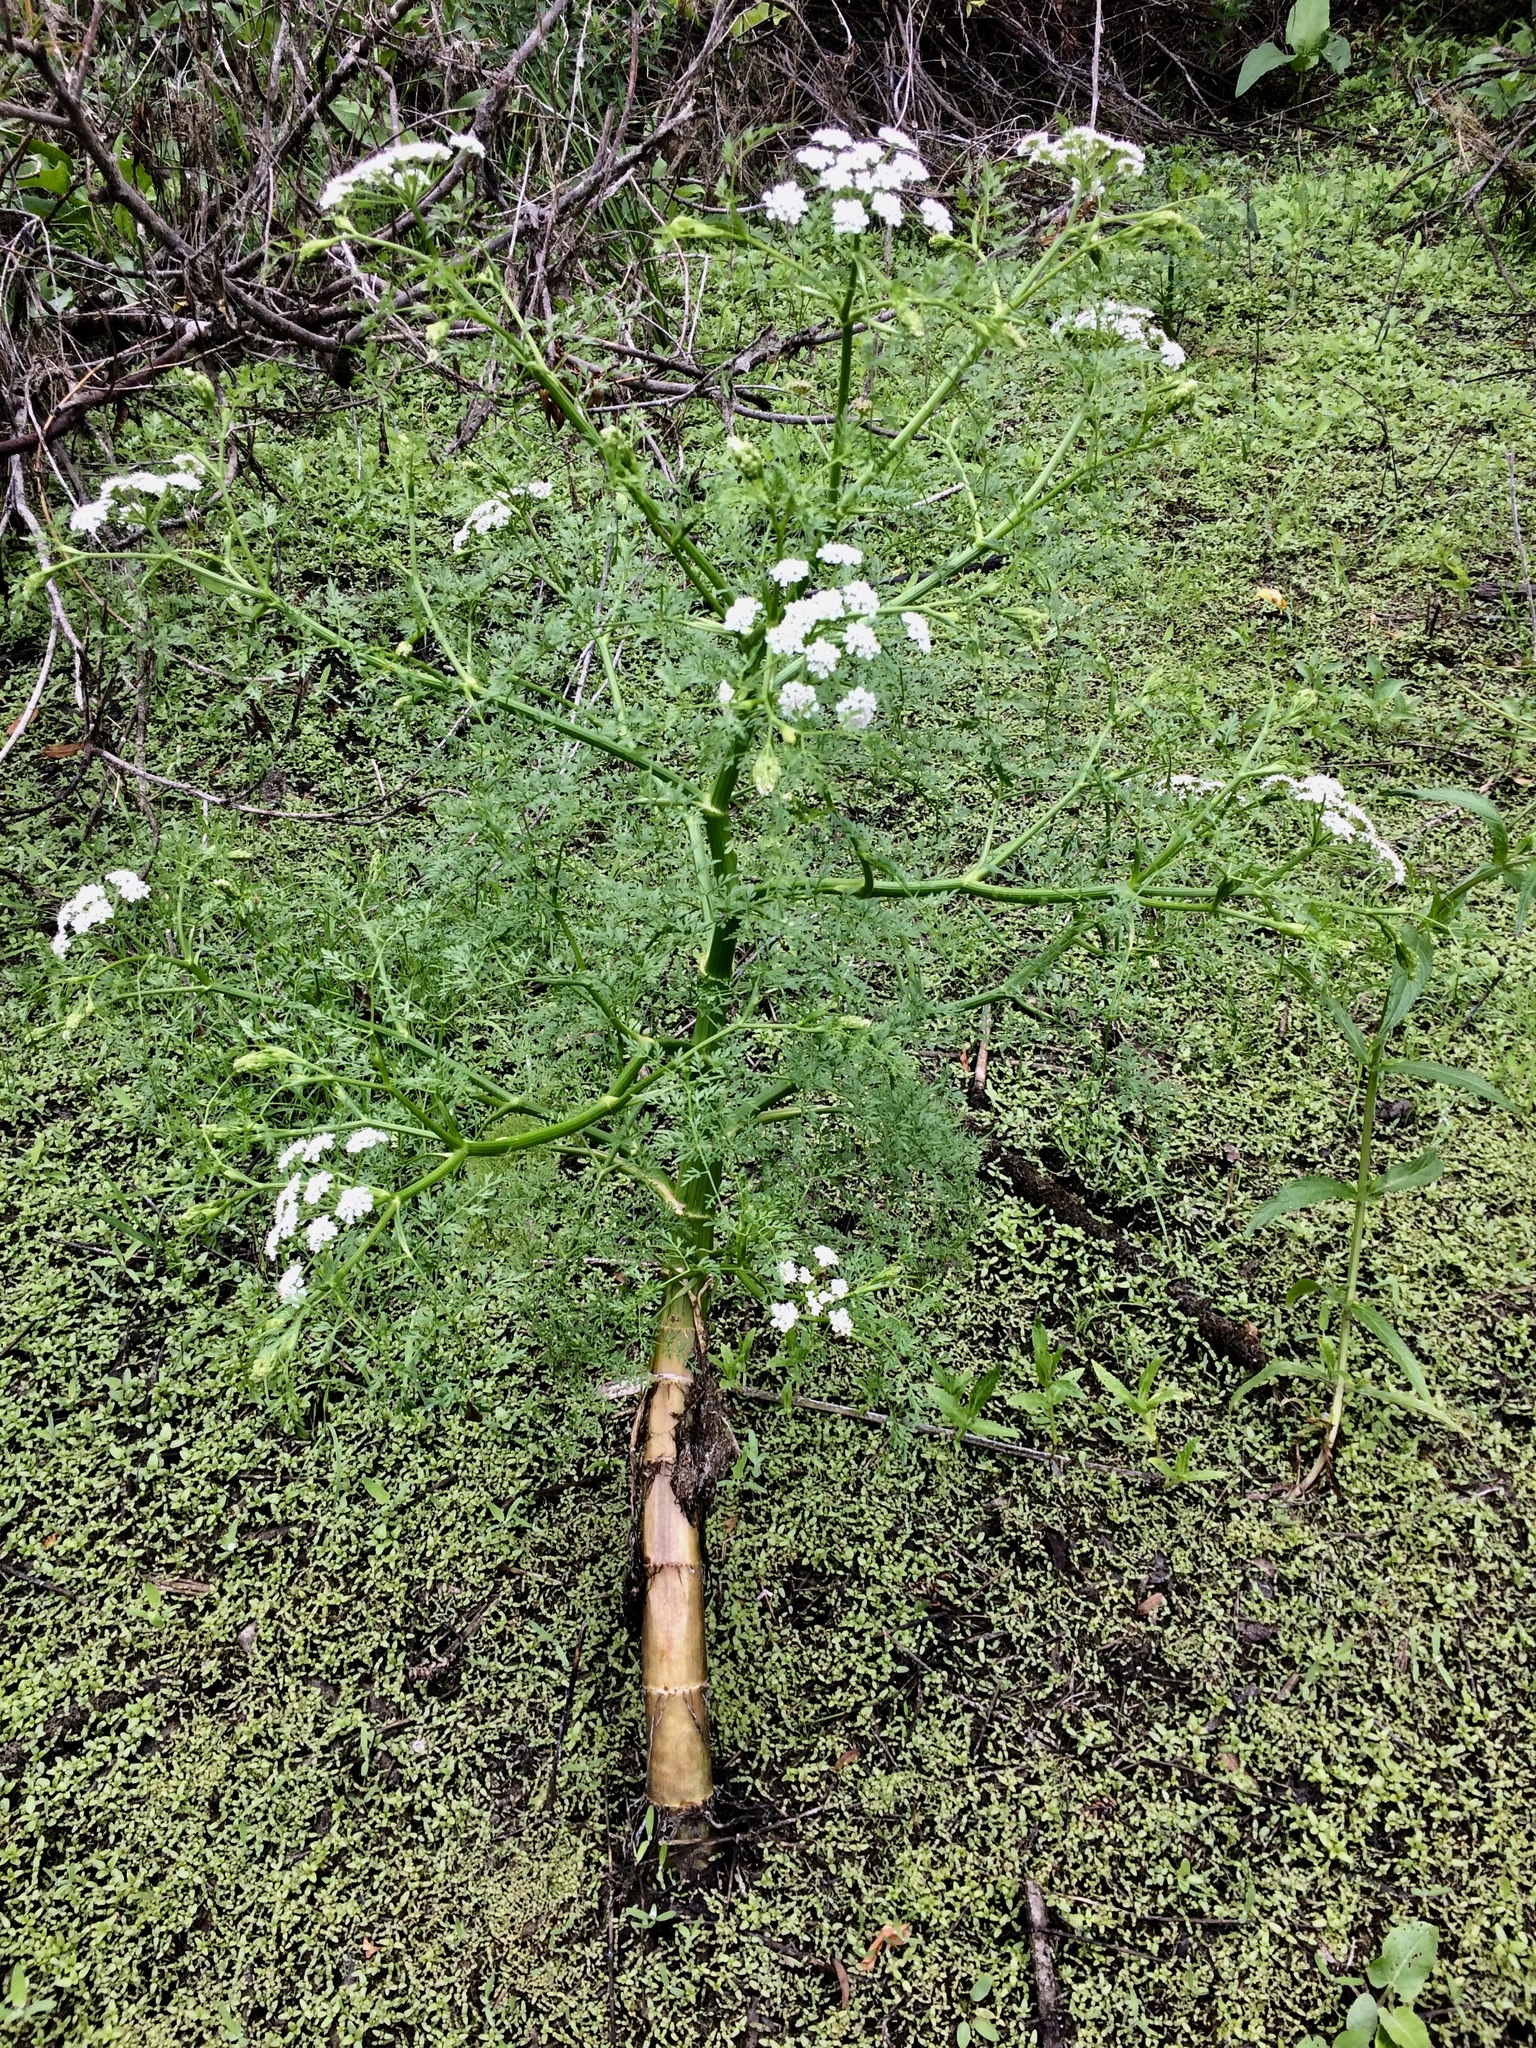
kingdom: Plantae
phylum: Tracheophyta
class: Magnoliopsida
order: Apiales
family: Apiaceae
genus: Oenanthe
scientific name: Oenanthe aquatica
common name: Fine-leaved water-dropwort
